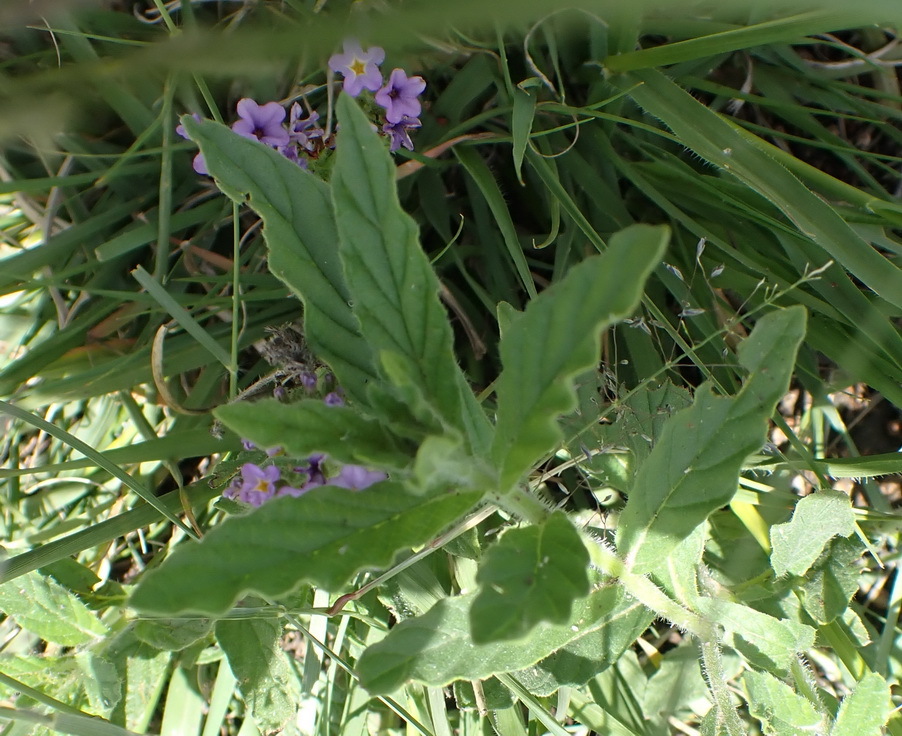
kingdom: Plantae
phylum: Tracheophyta
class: Magnoliopsida
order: Boraginales
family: Heliotropiaceae
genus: Heliotropium
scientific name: Heliotropium amplexicaule
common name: Clasping heliotrope
